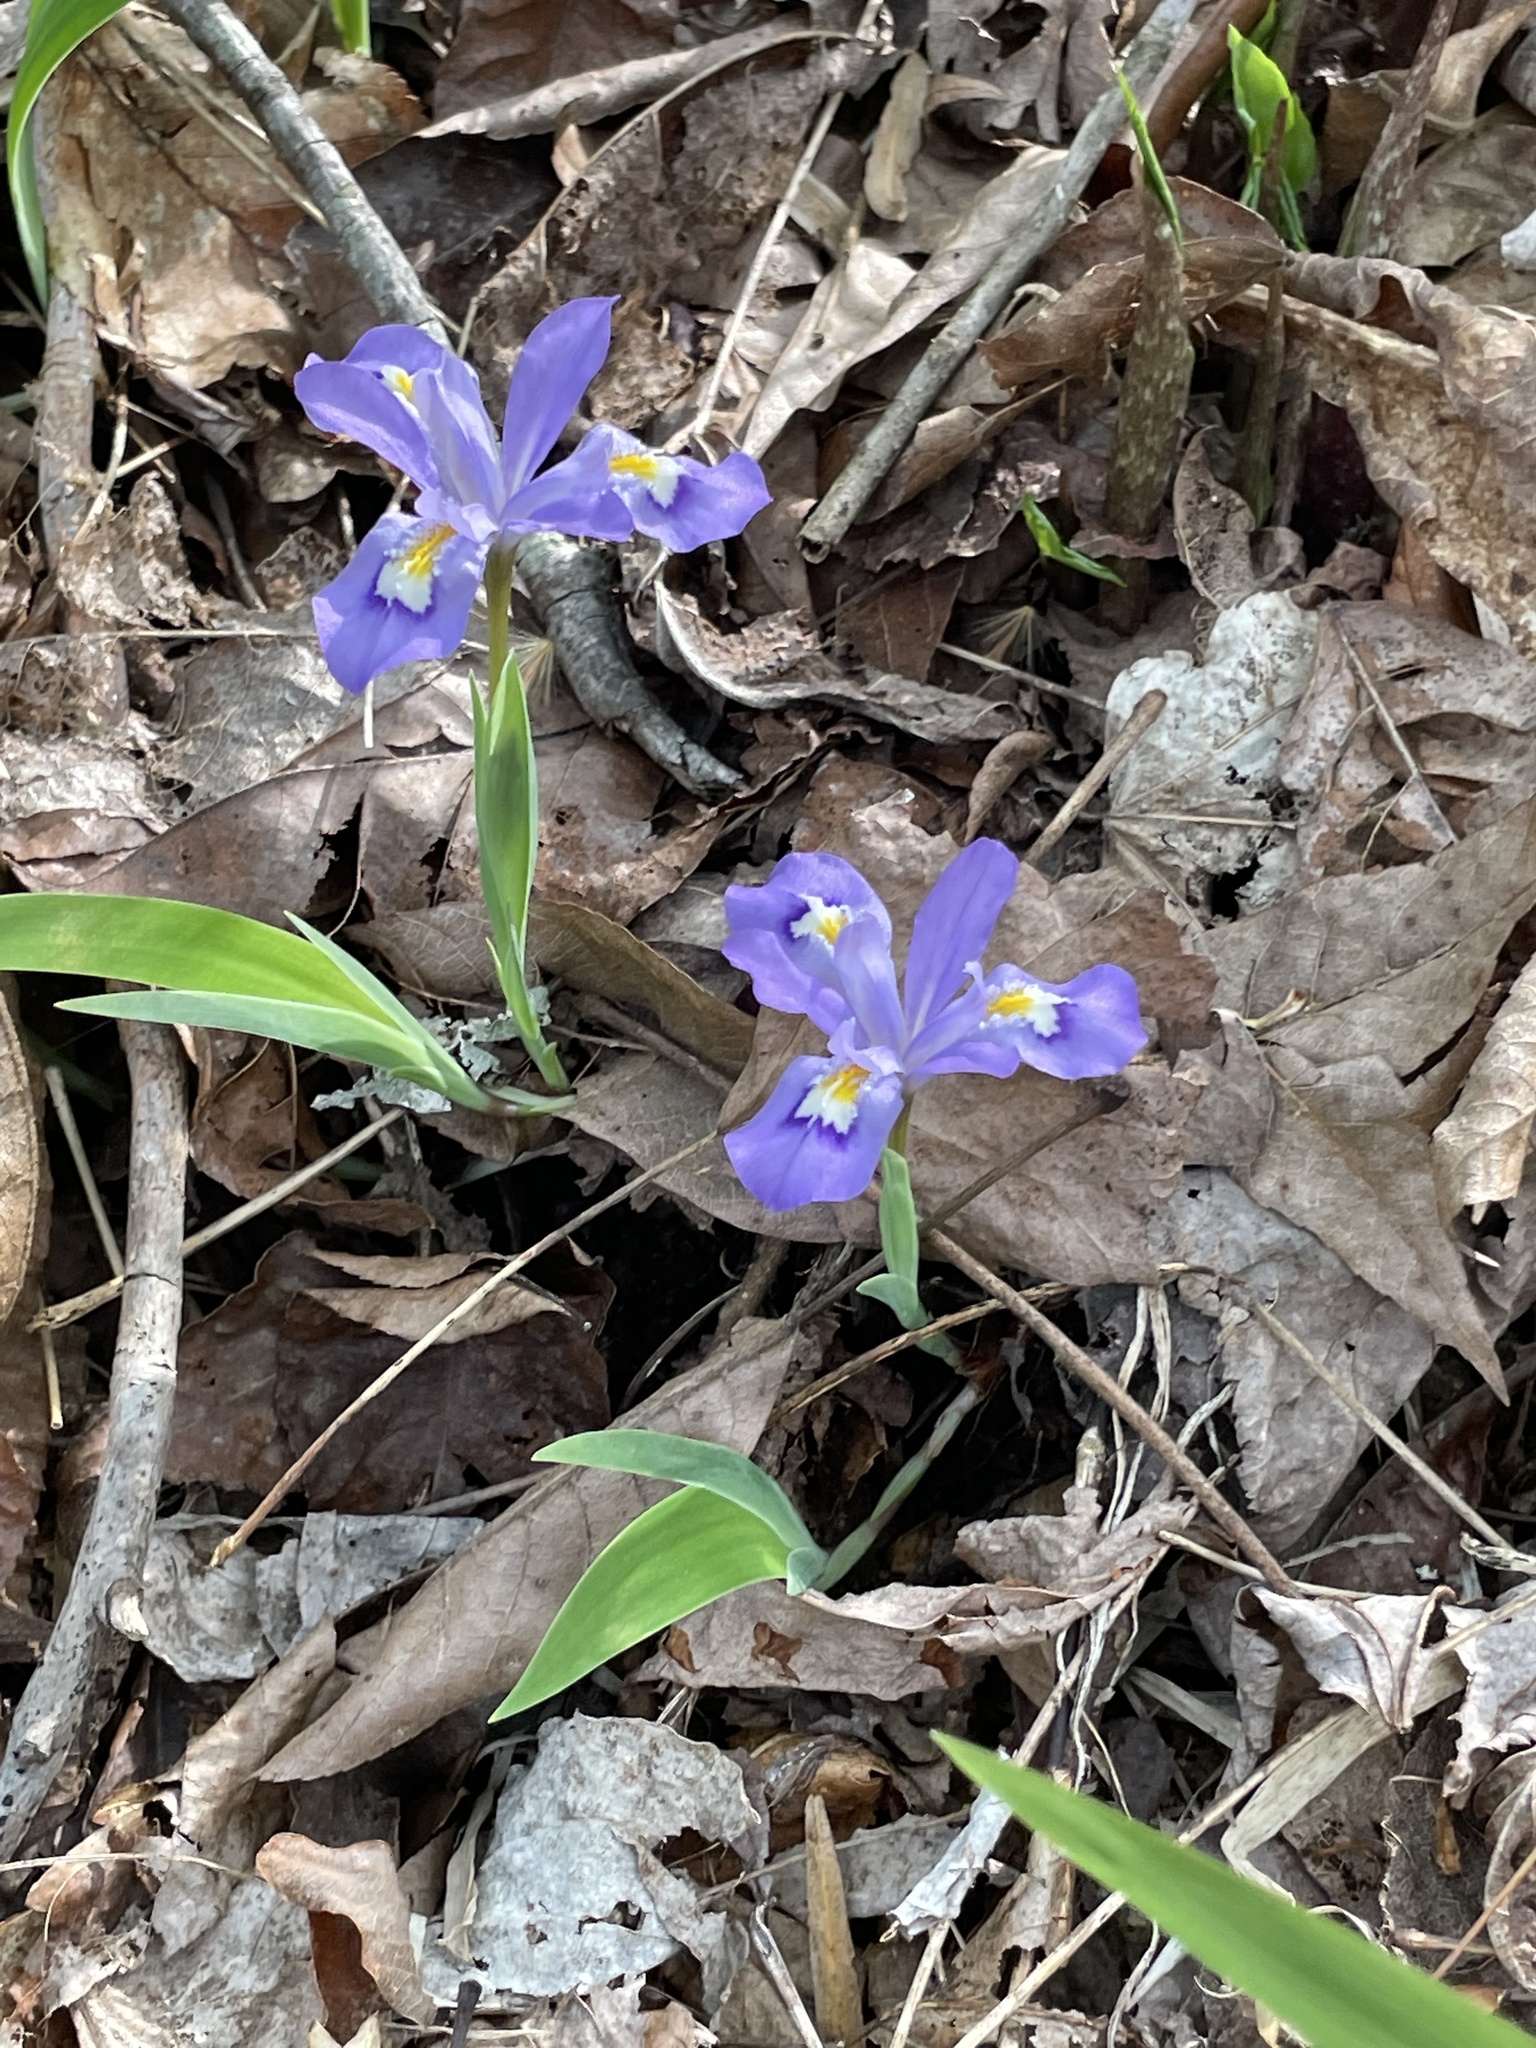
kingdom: Plantae
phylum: Tracheophyta
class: Liliopsida
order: Asparagales
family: Iridaceae
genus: Iris
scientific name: Iris cristata
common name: Crested iris
